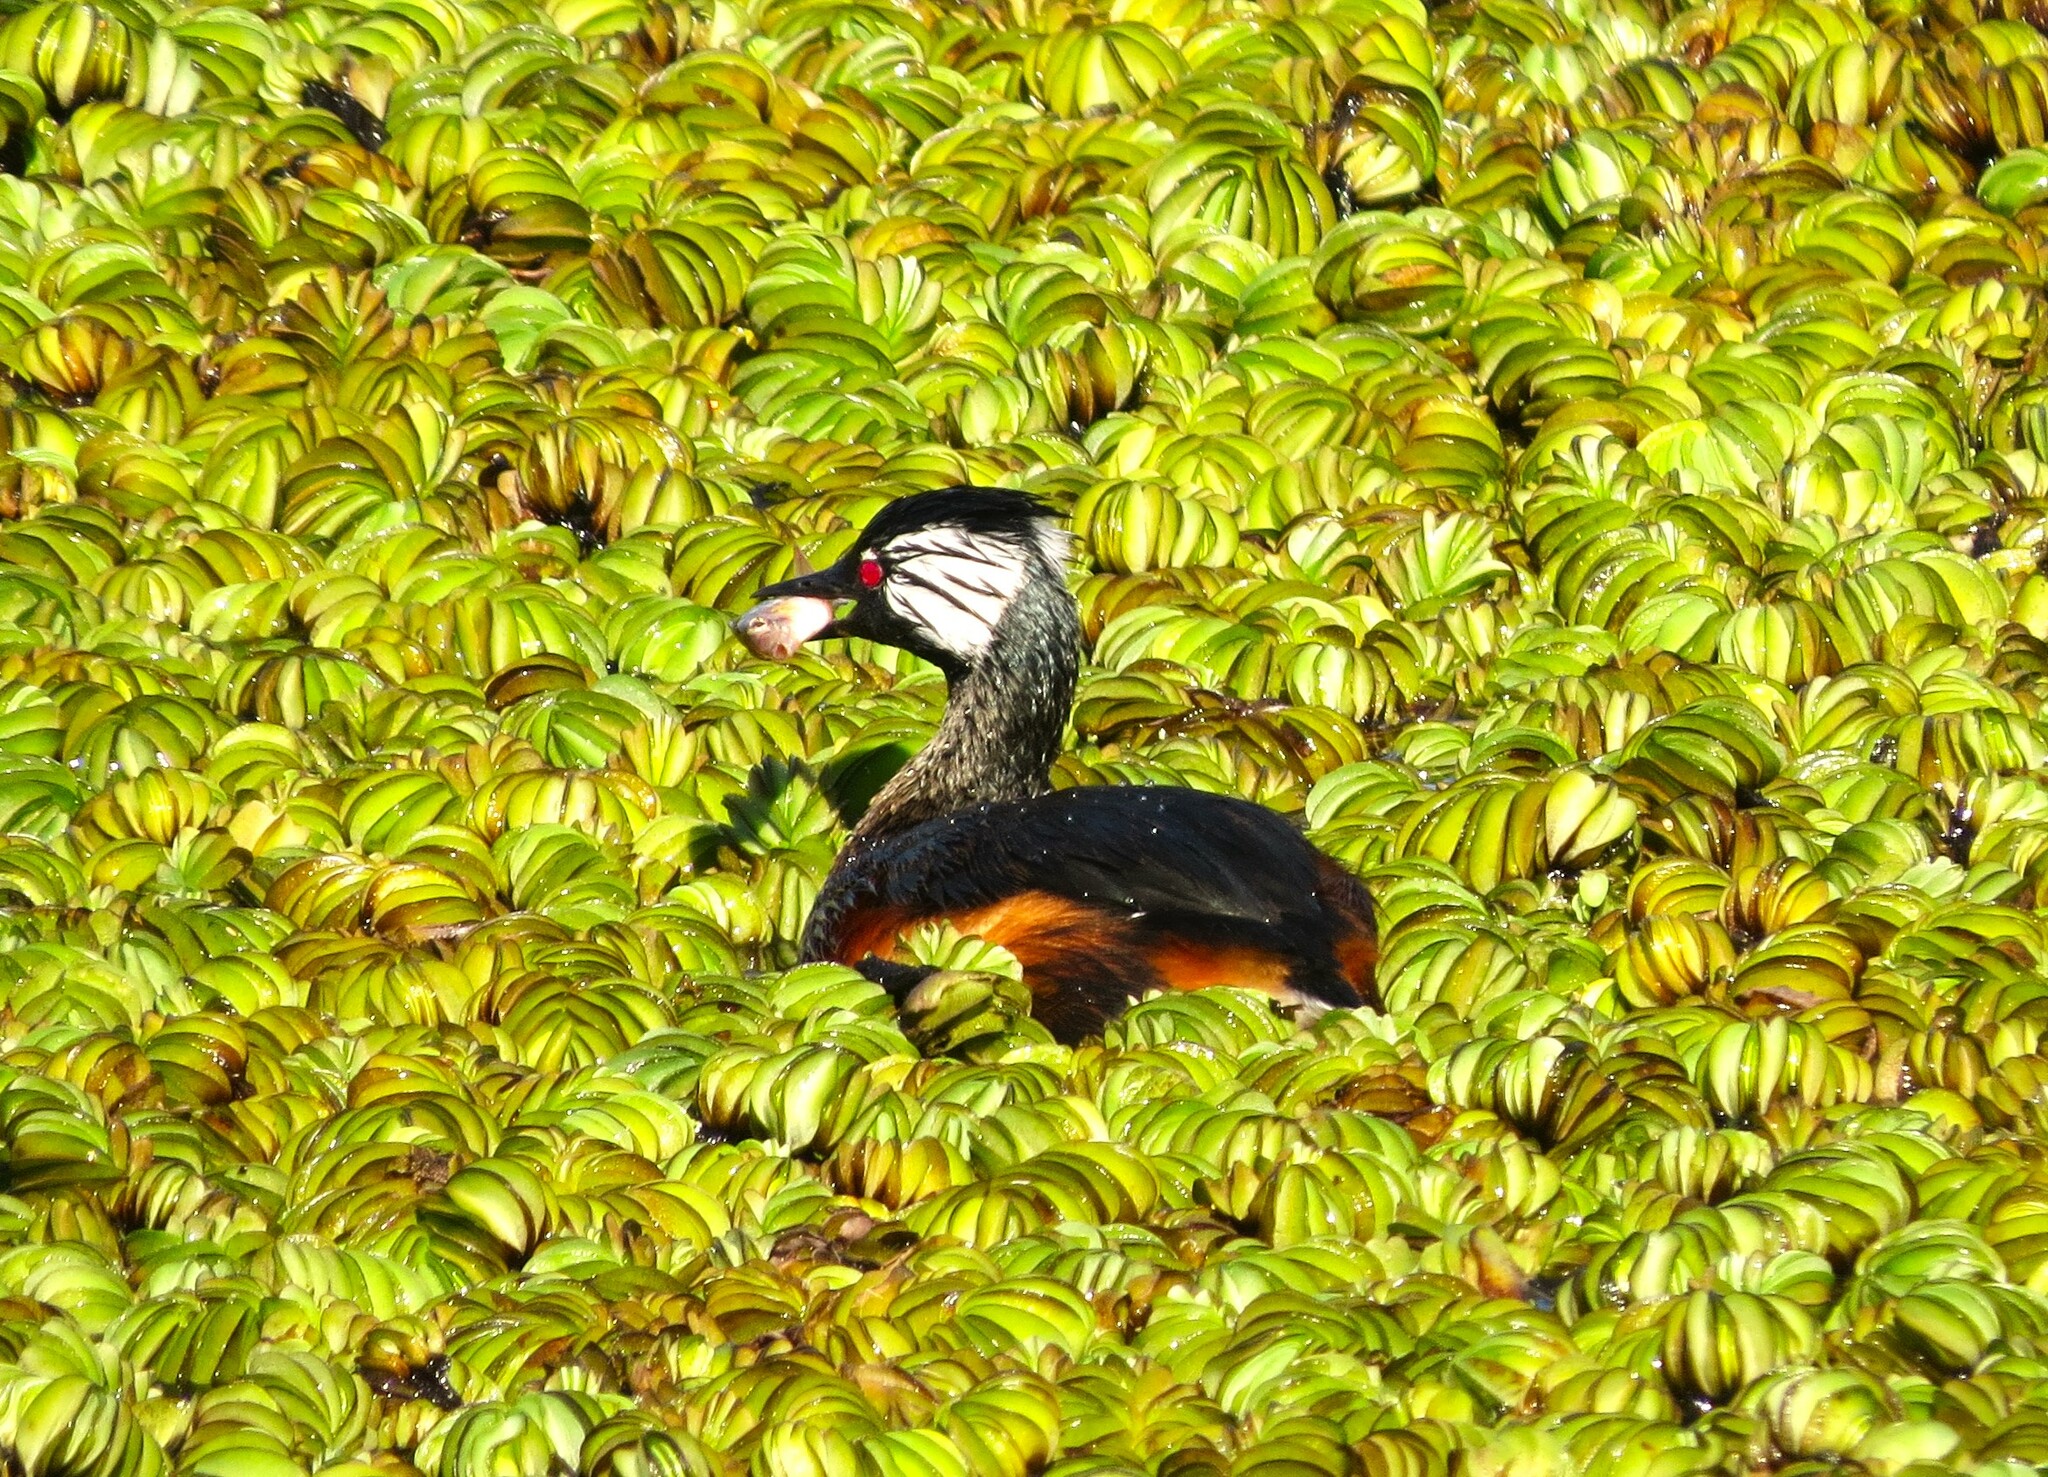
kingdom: Animalia
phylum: Chordata
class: Aves
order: Podicipediformes
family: Podicipedidae
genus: Rollandia
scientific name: Rollandia rolland
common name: White-tufted grebe
